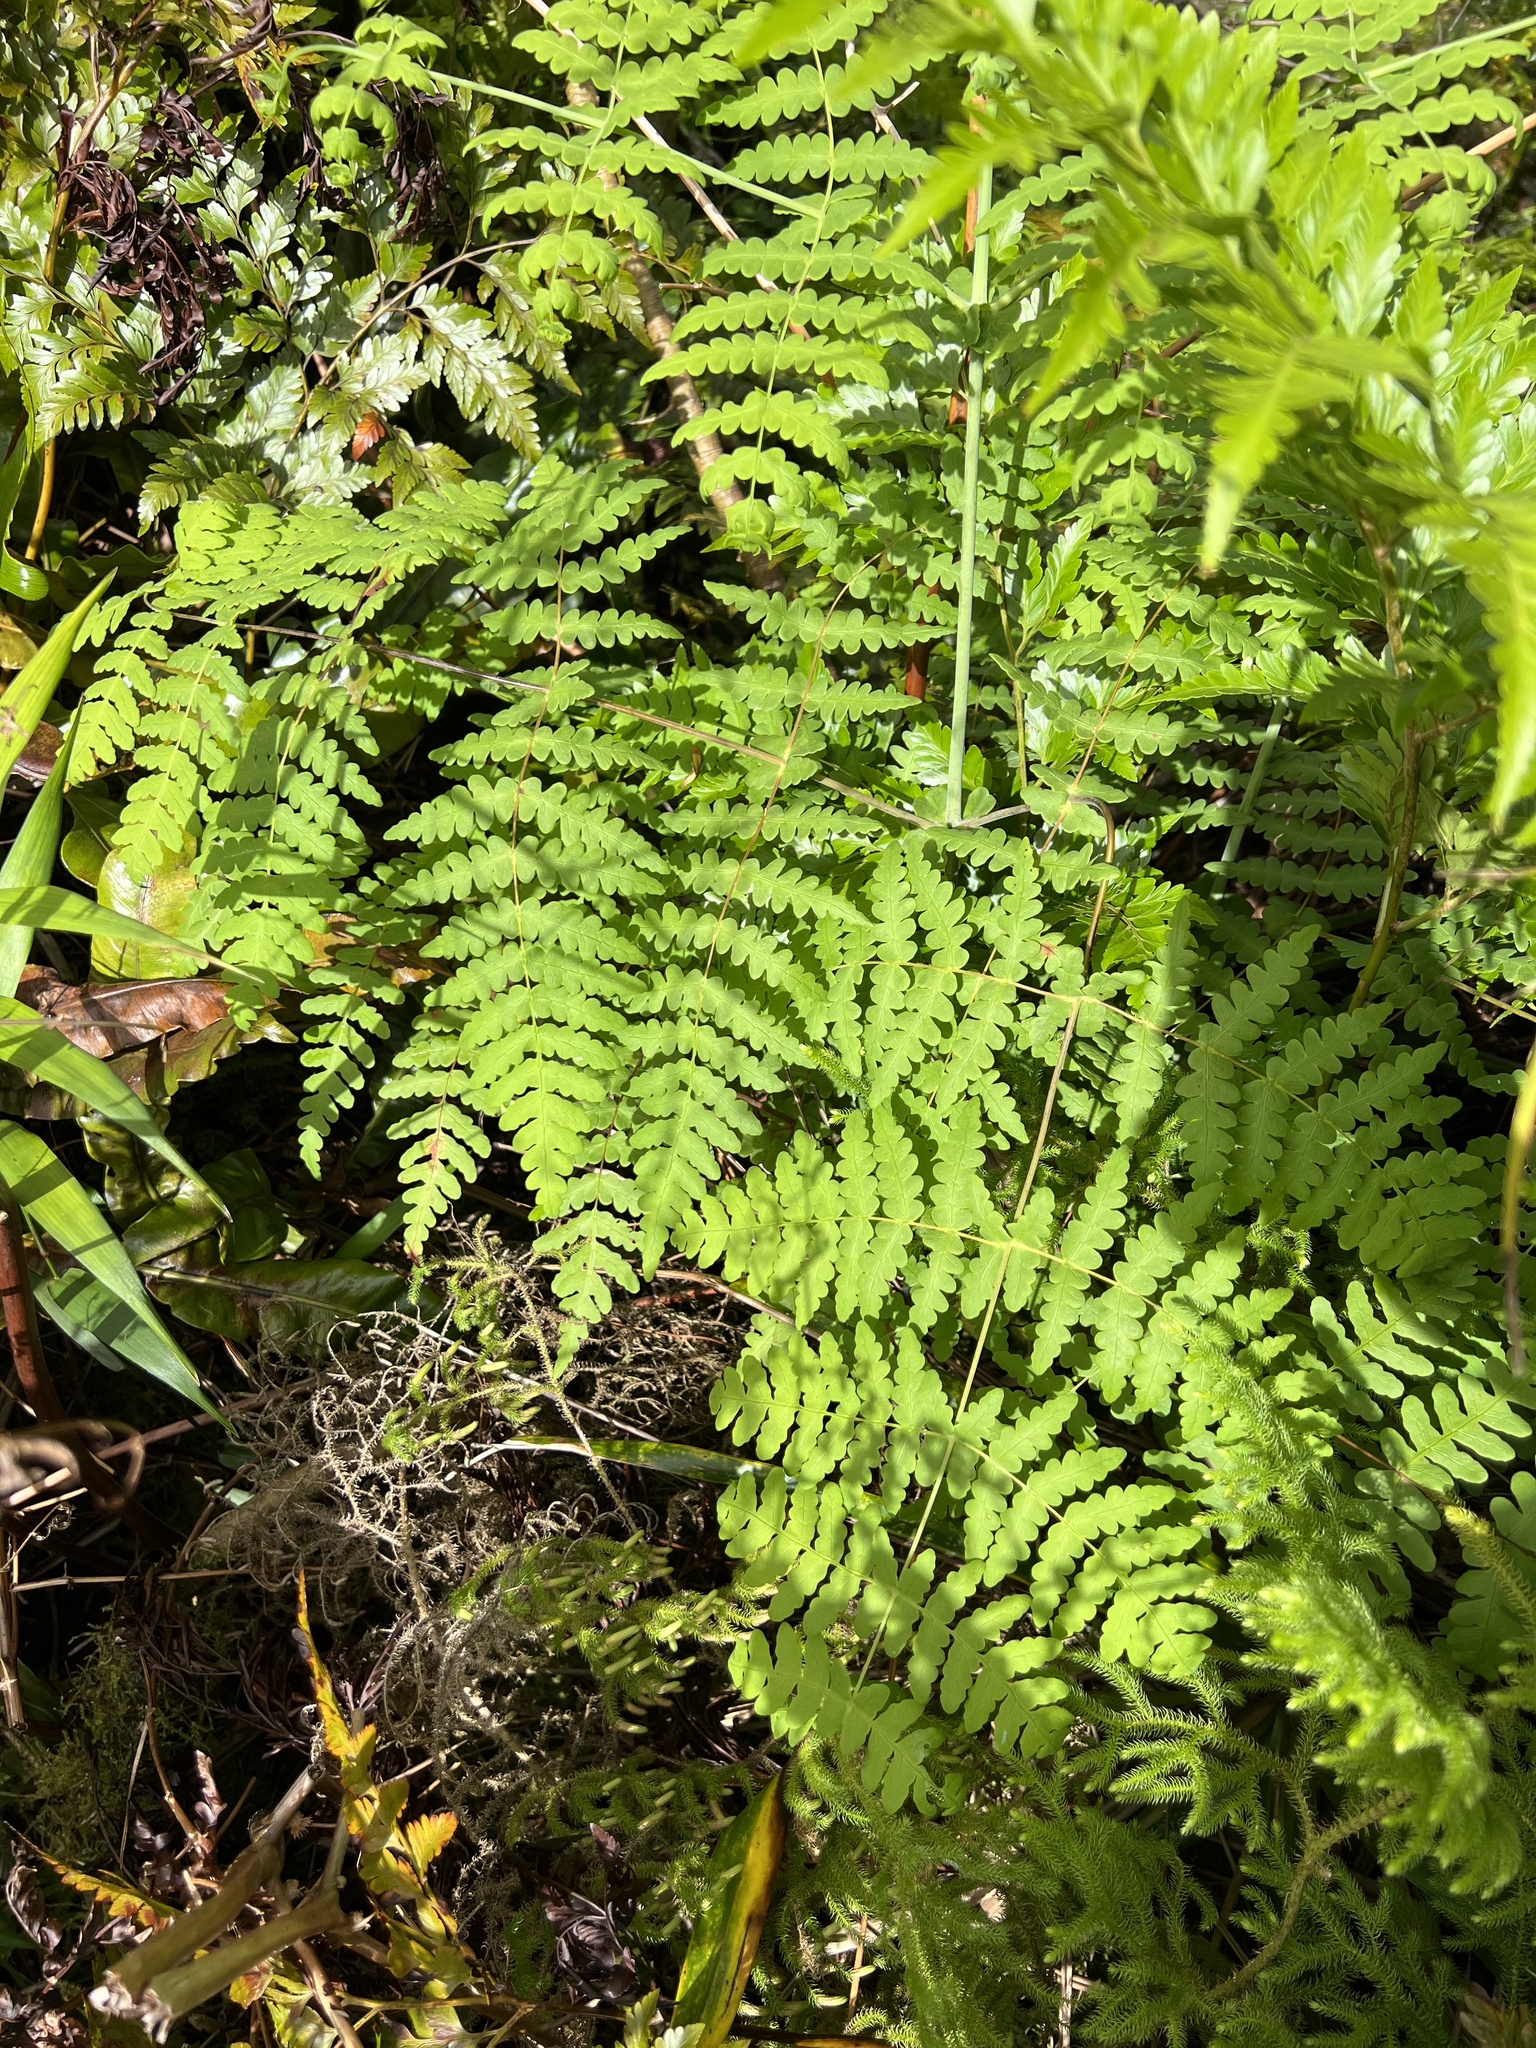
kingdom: Plantae
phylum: Tracheophyta
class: Polypodiopsida
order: Polypodiales
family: Dennstaedtiaceae
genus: Histiopteris
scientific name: Histiopteris incisa
